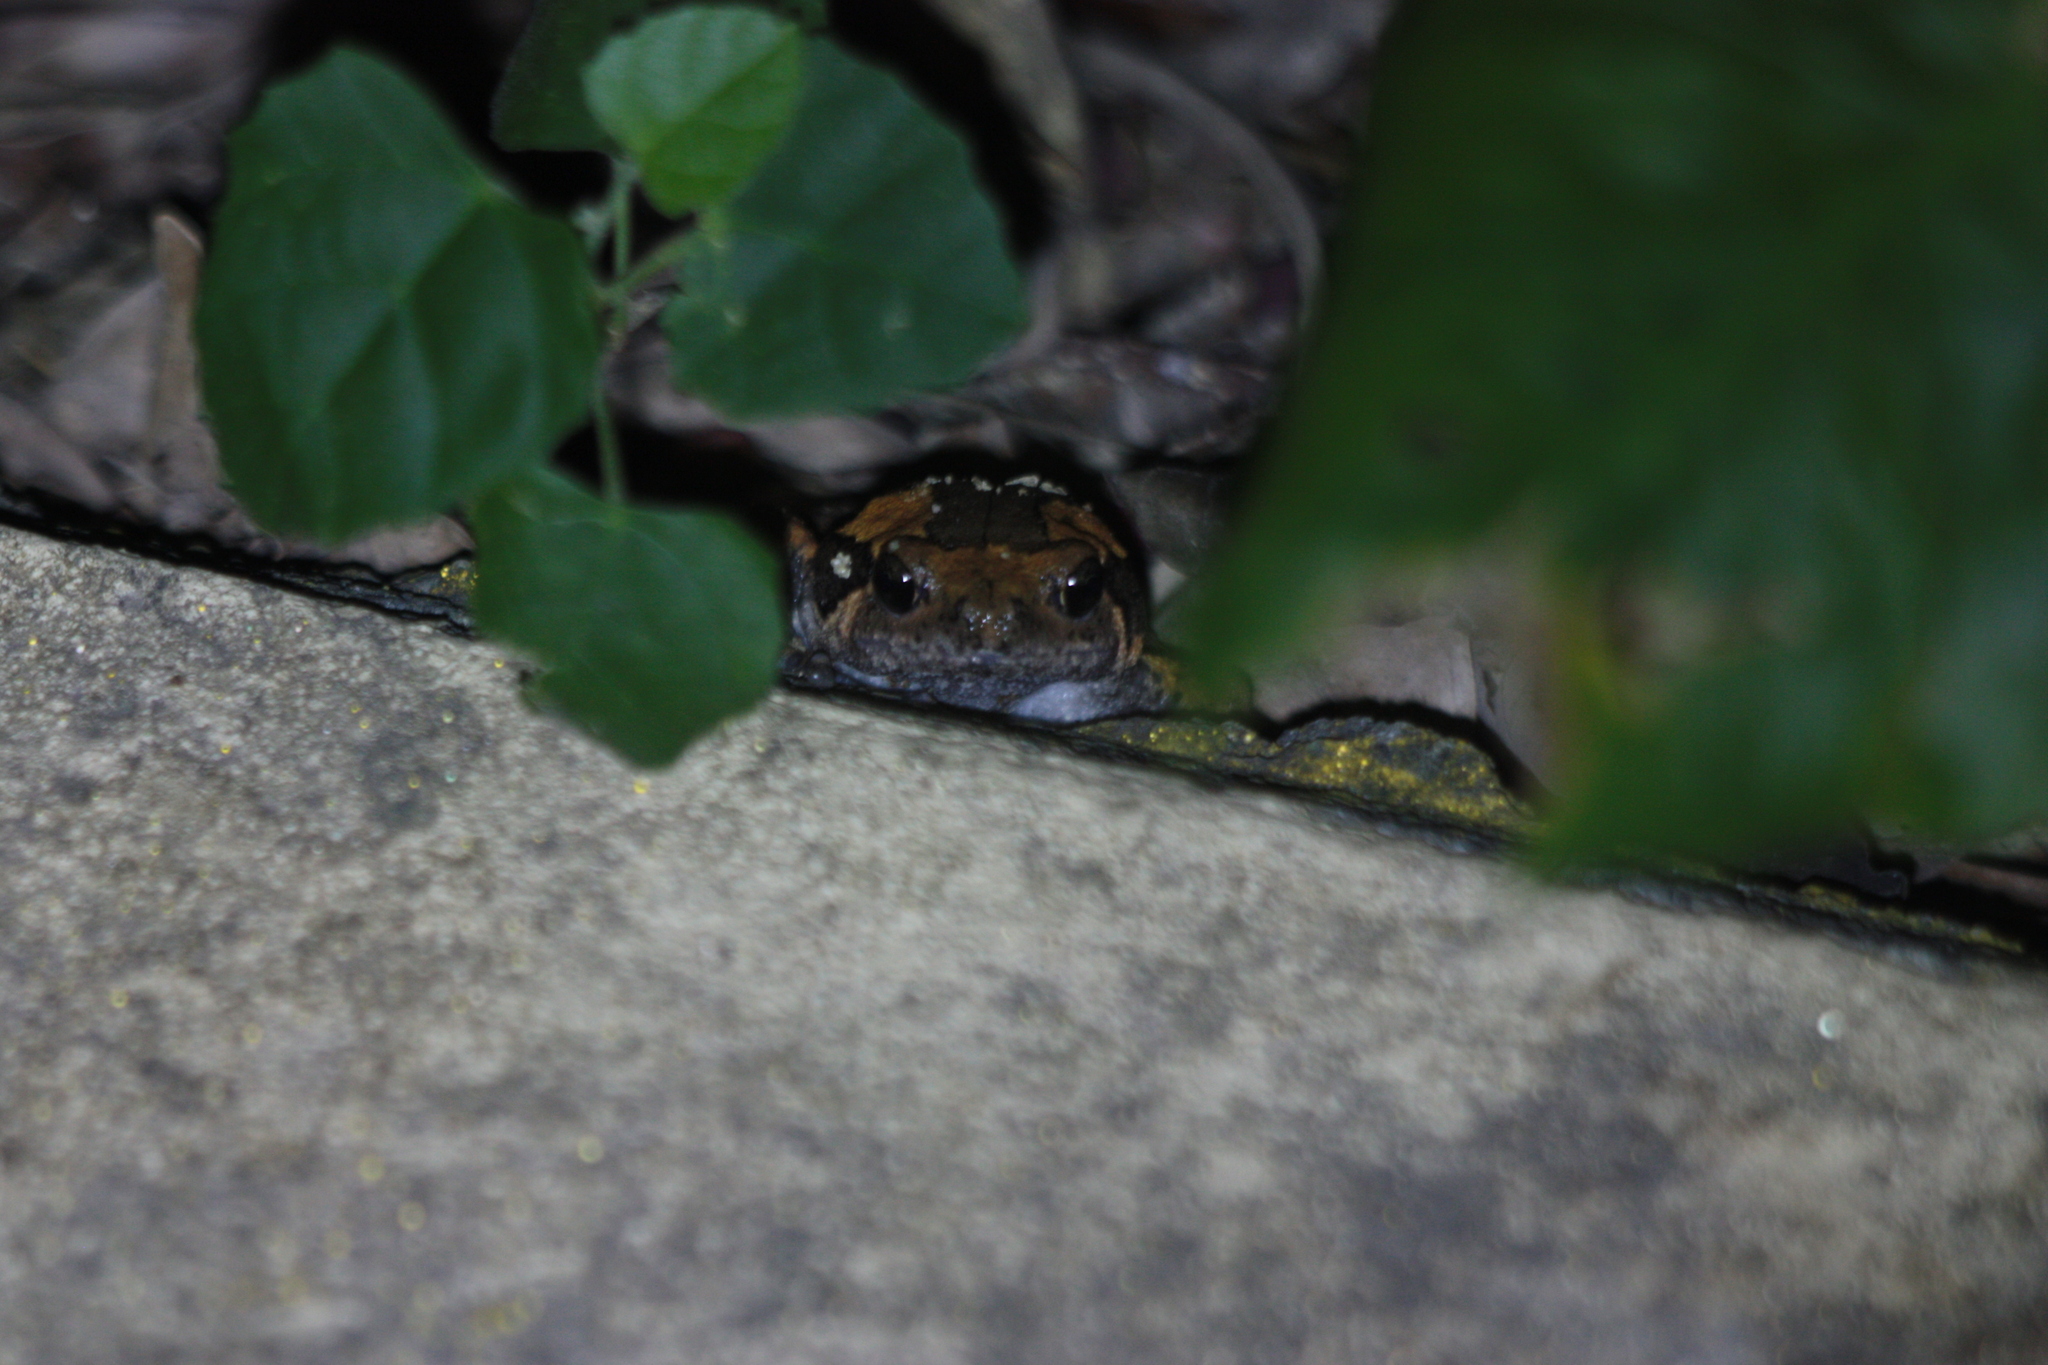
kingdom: Animalia
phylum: Chordata
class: Amphibia
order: Anura
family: Microhylidae
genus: Kaloula
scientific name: Kaloula pulchra
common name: Common,banded bullfrog
